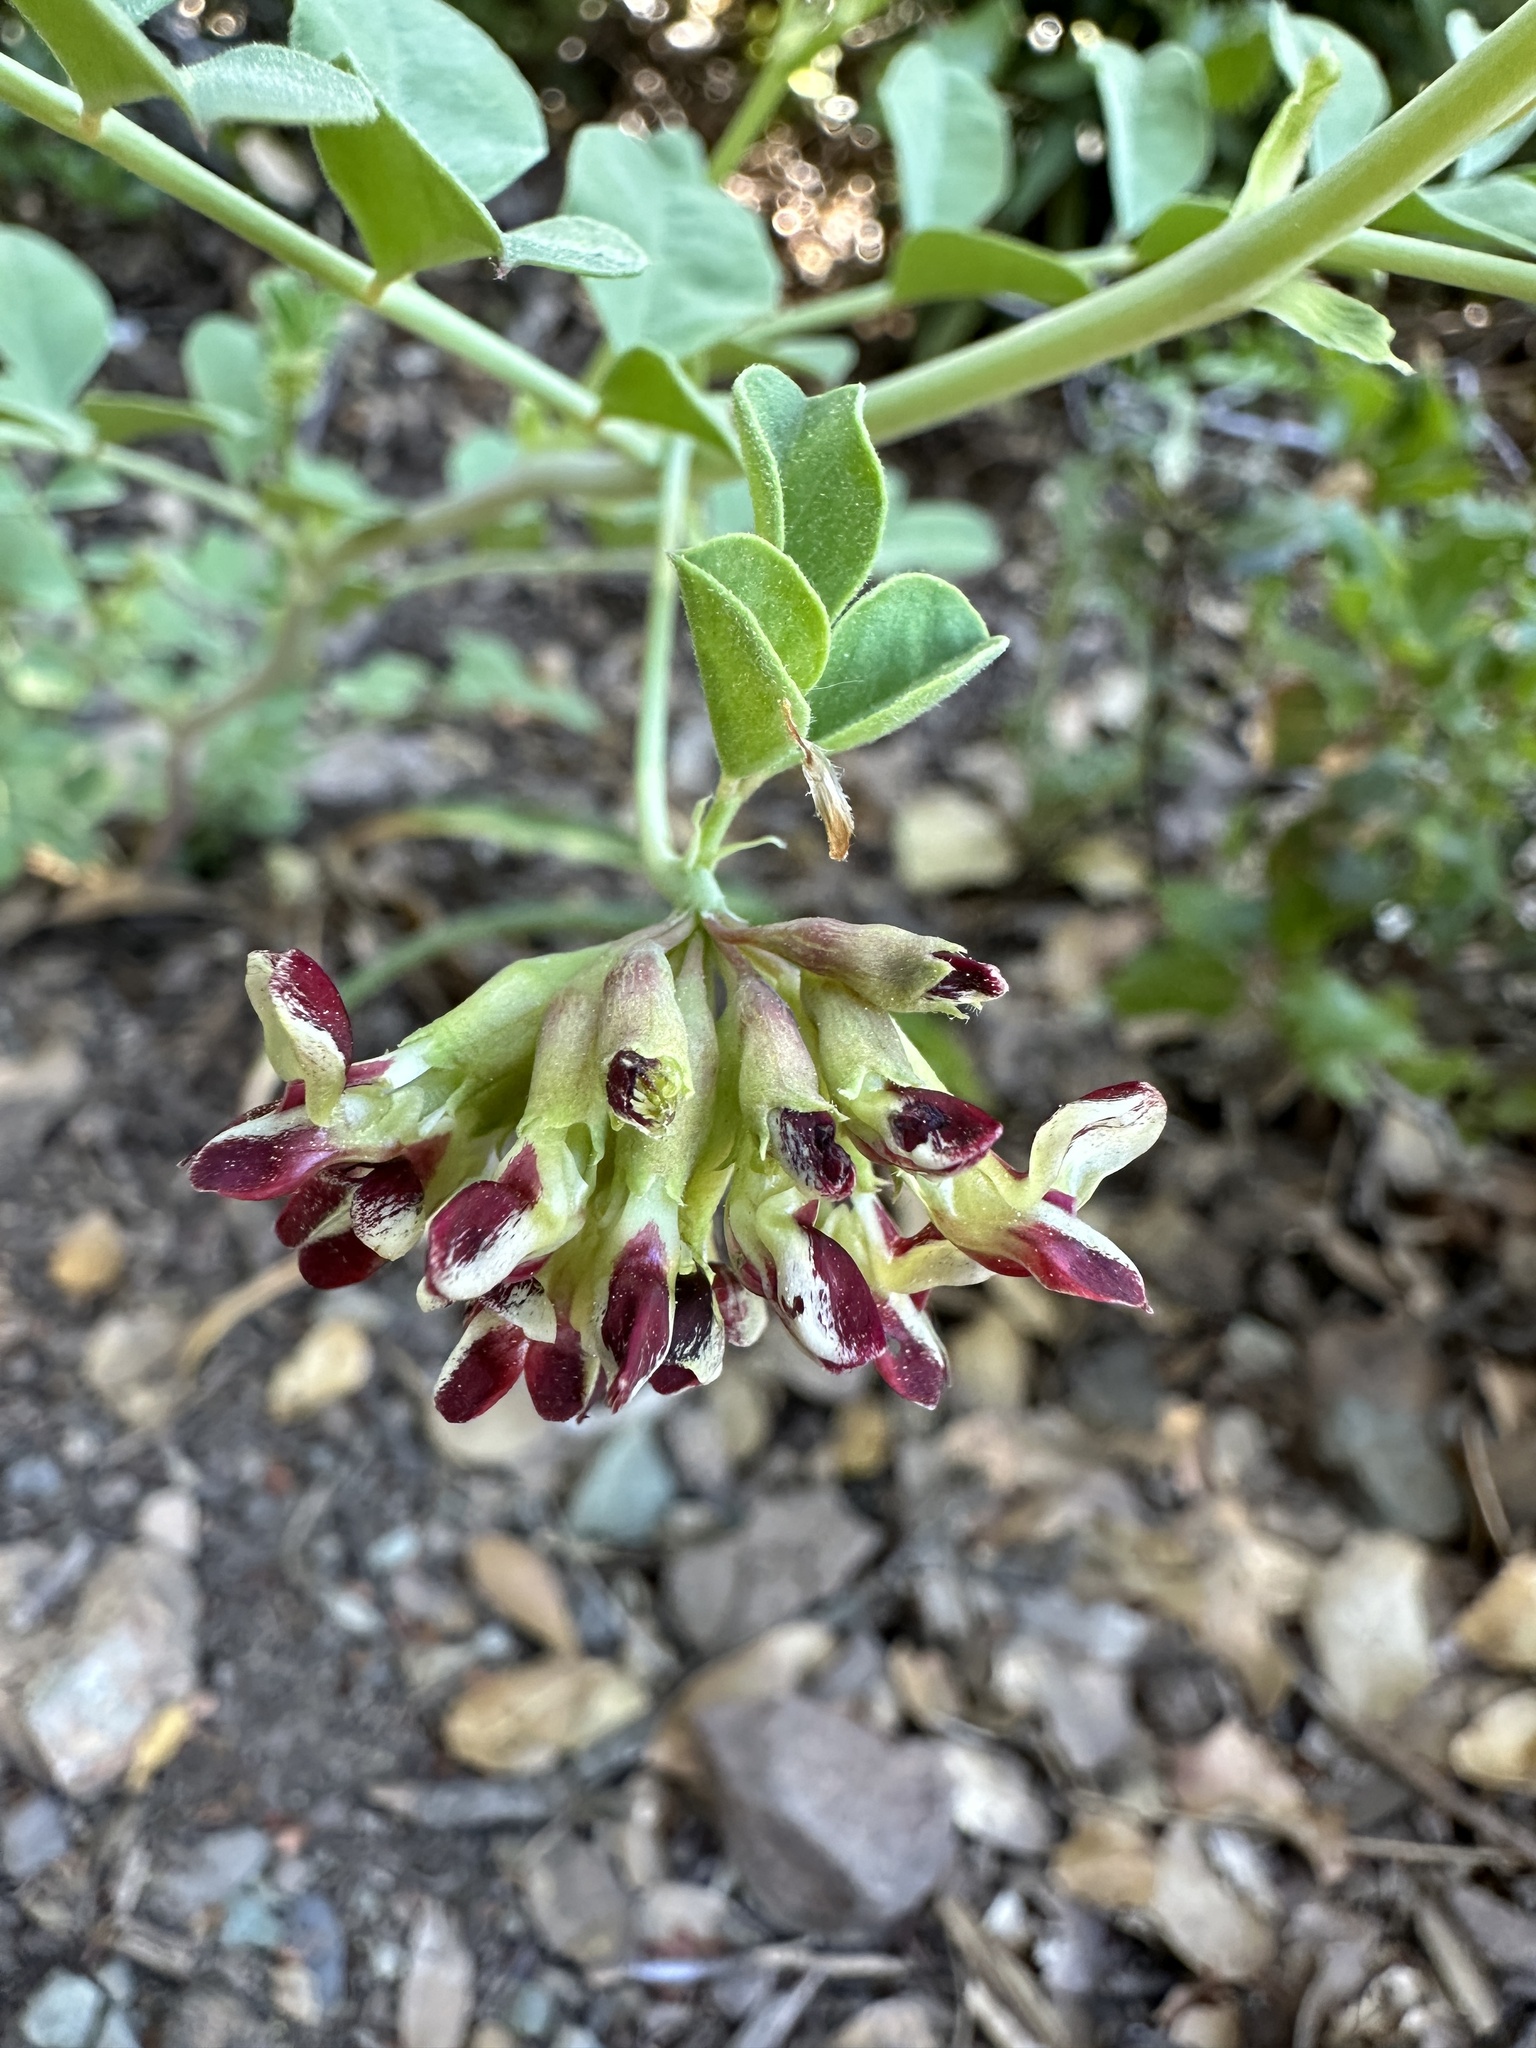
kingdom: Plantae
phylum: Tracheophyta
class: Magnoliopsida
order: Fabales
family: Fabaceae
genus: Hosackia
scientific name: Hosackia crassifolia
